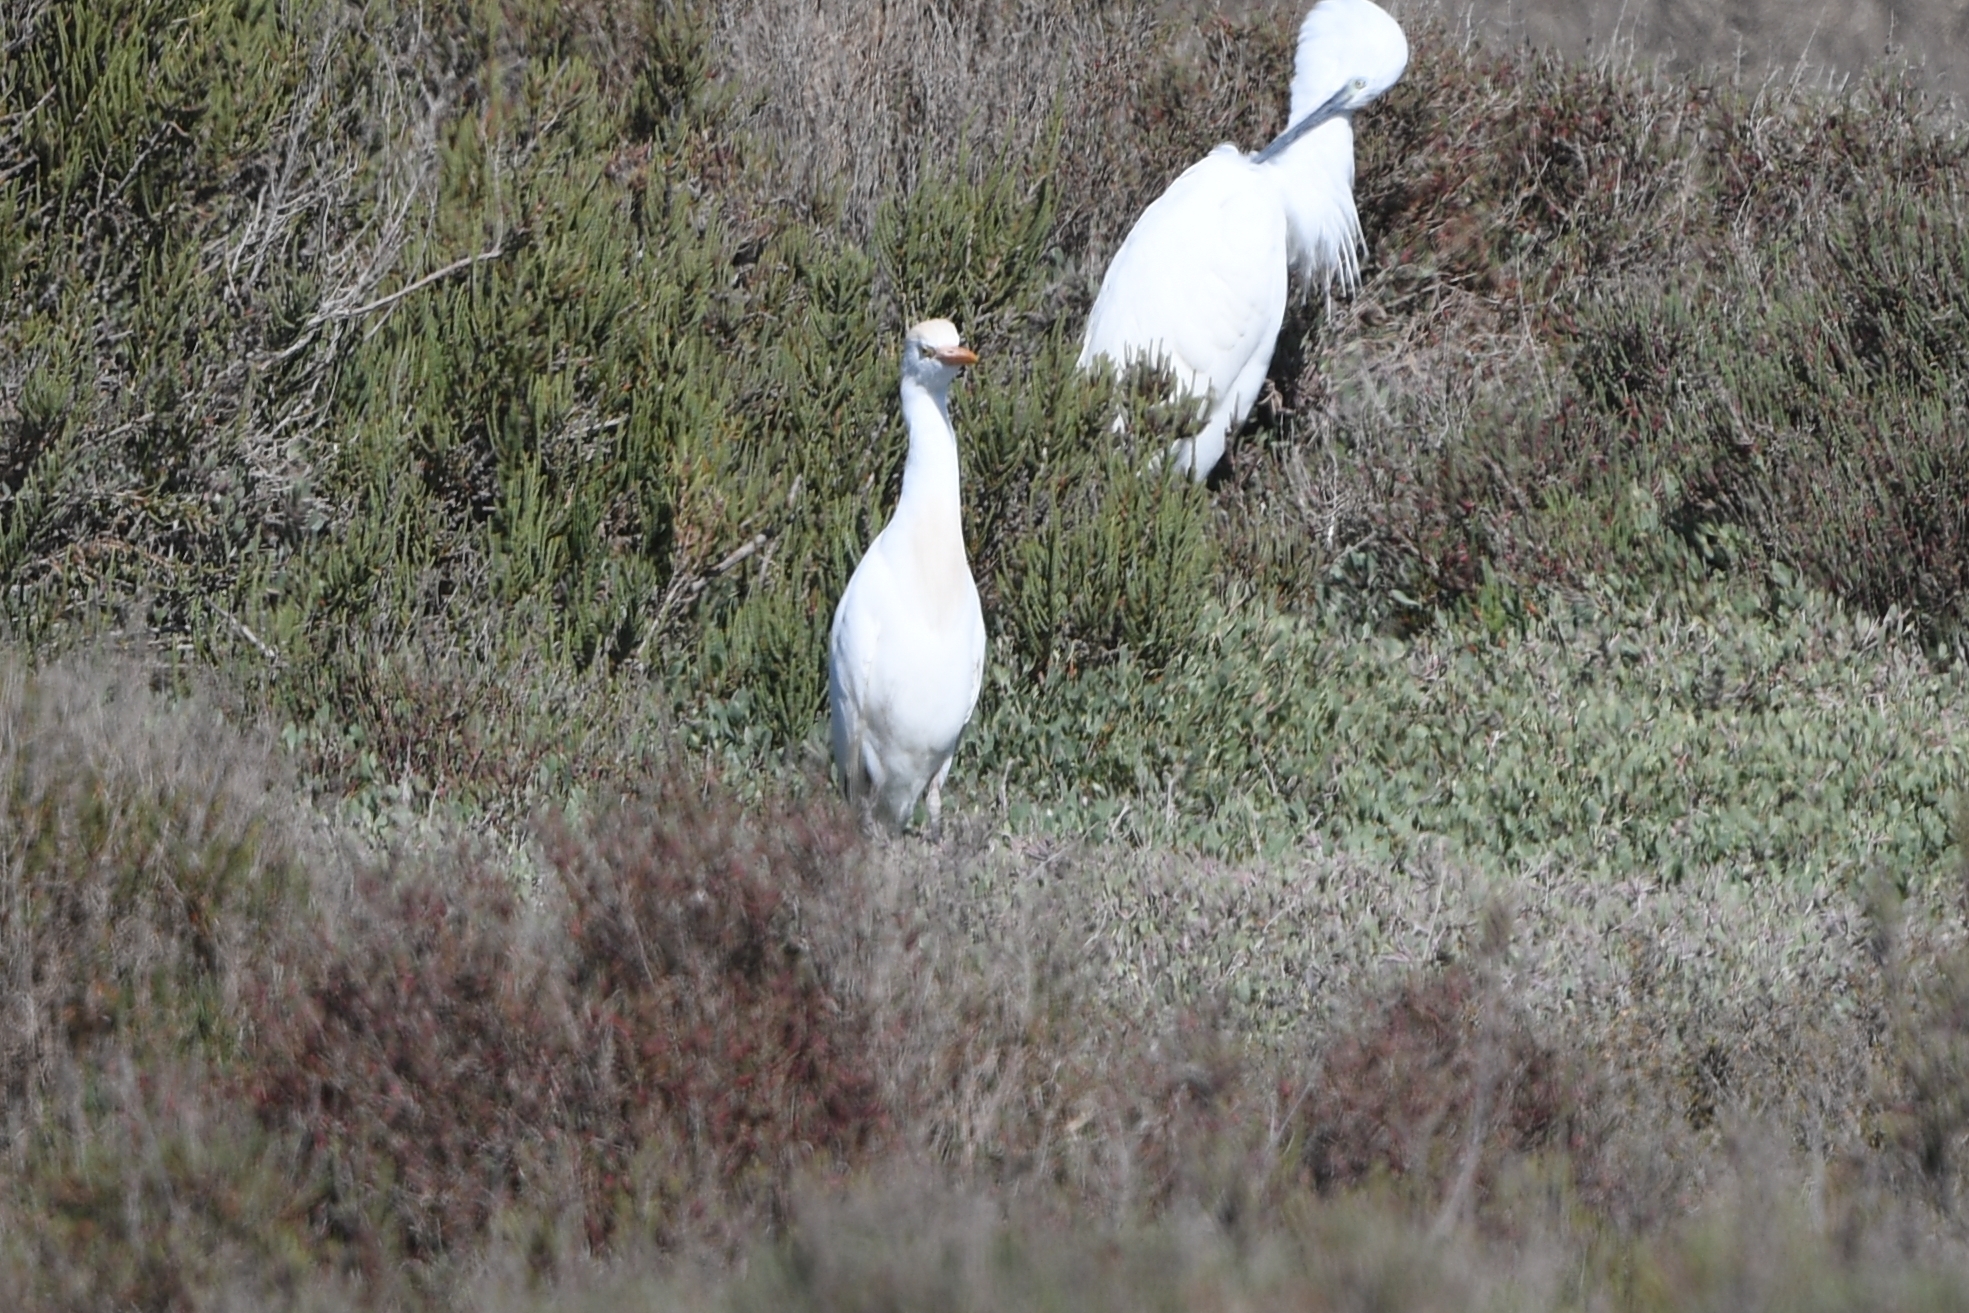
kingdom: Animalia
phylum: Chordata
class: Aves
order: Pelecaniformes
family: Ardeidae
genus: Bubulcus
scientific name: Bubulcus ibis
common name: Cattle egret
